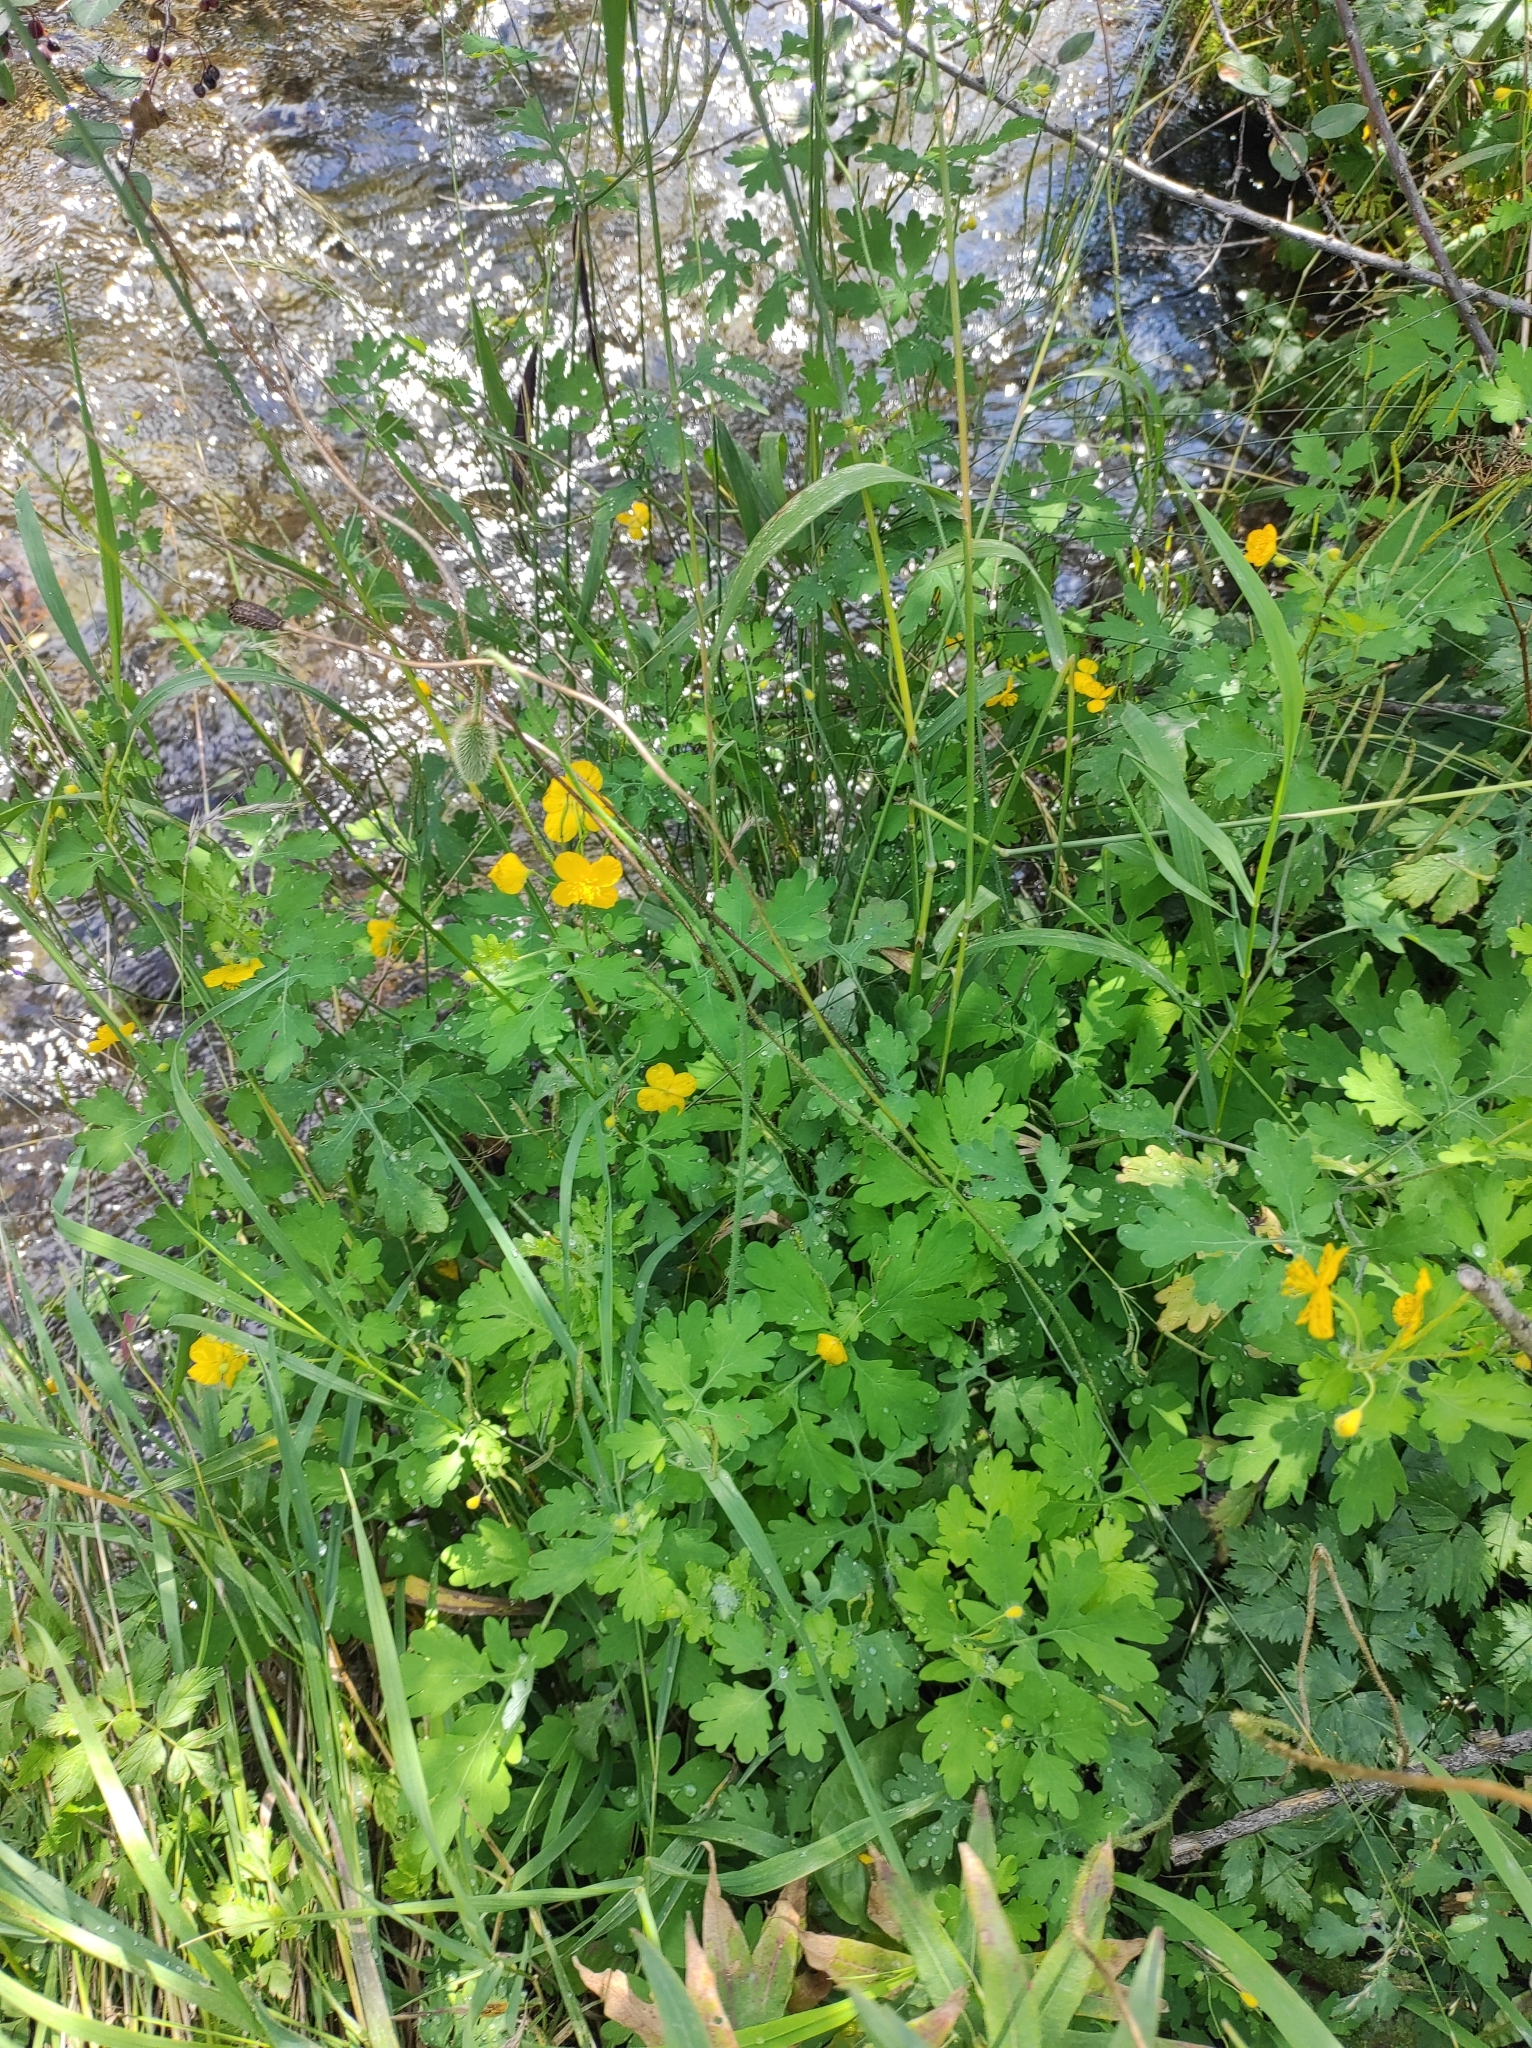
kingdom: Plantae
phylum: Tracheophyta
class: Magnoliopsida
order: Ranunculales
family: Papaveraceae
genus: Chelidonium
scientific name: Chelidonium majus
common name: Greater celandine
